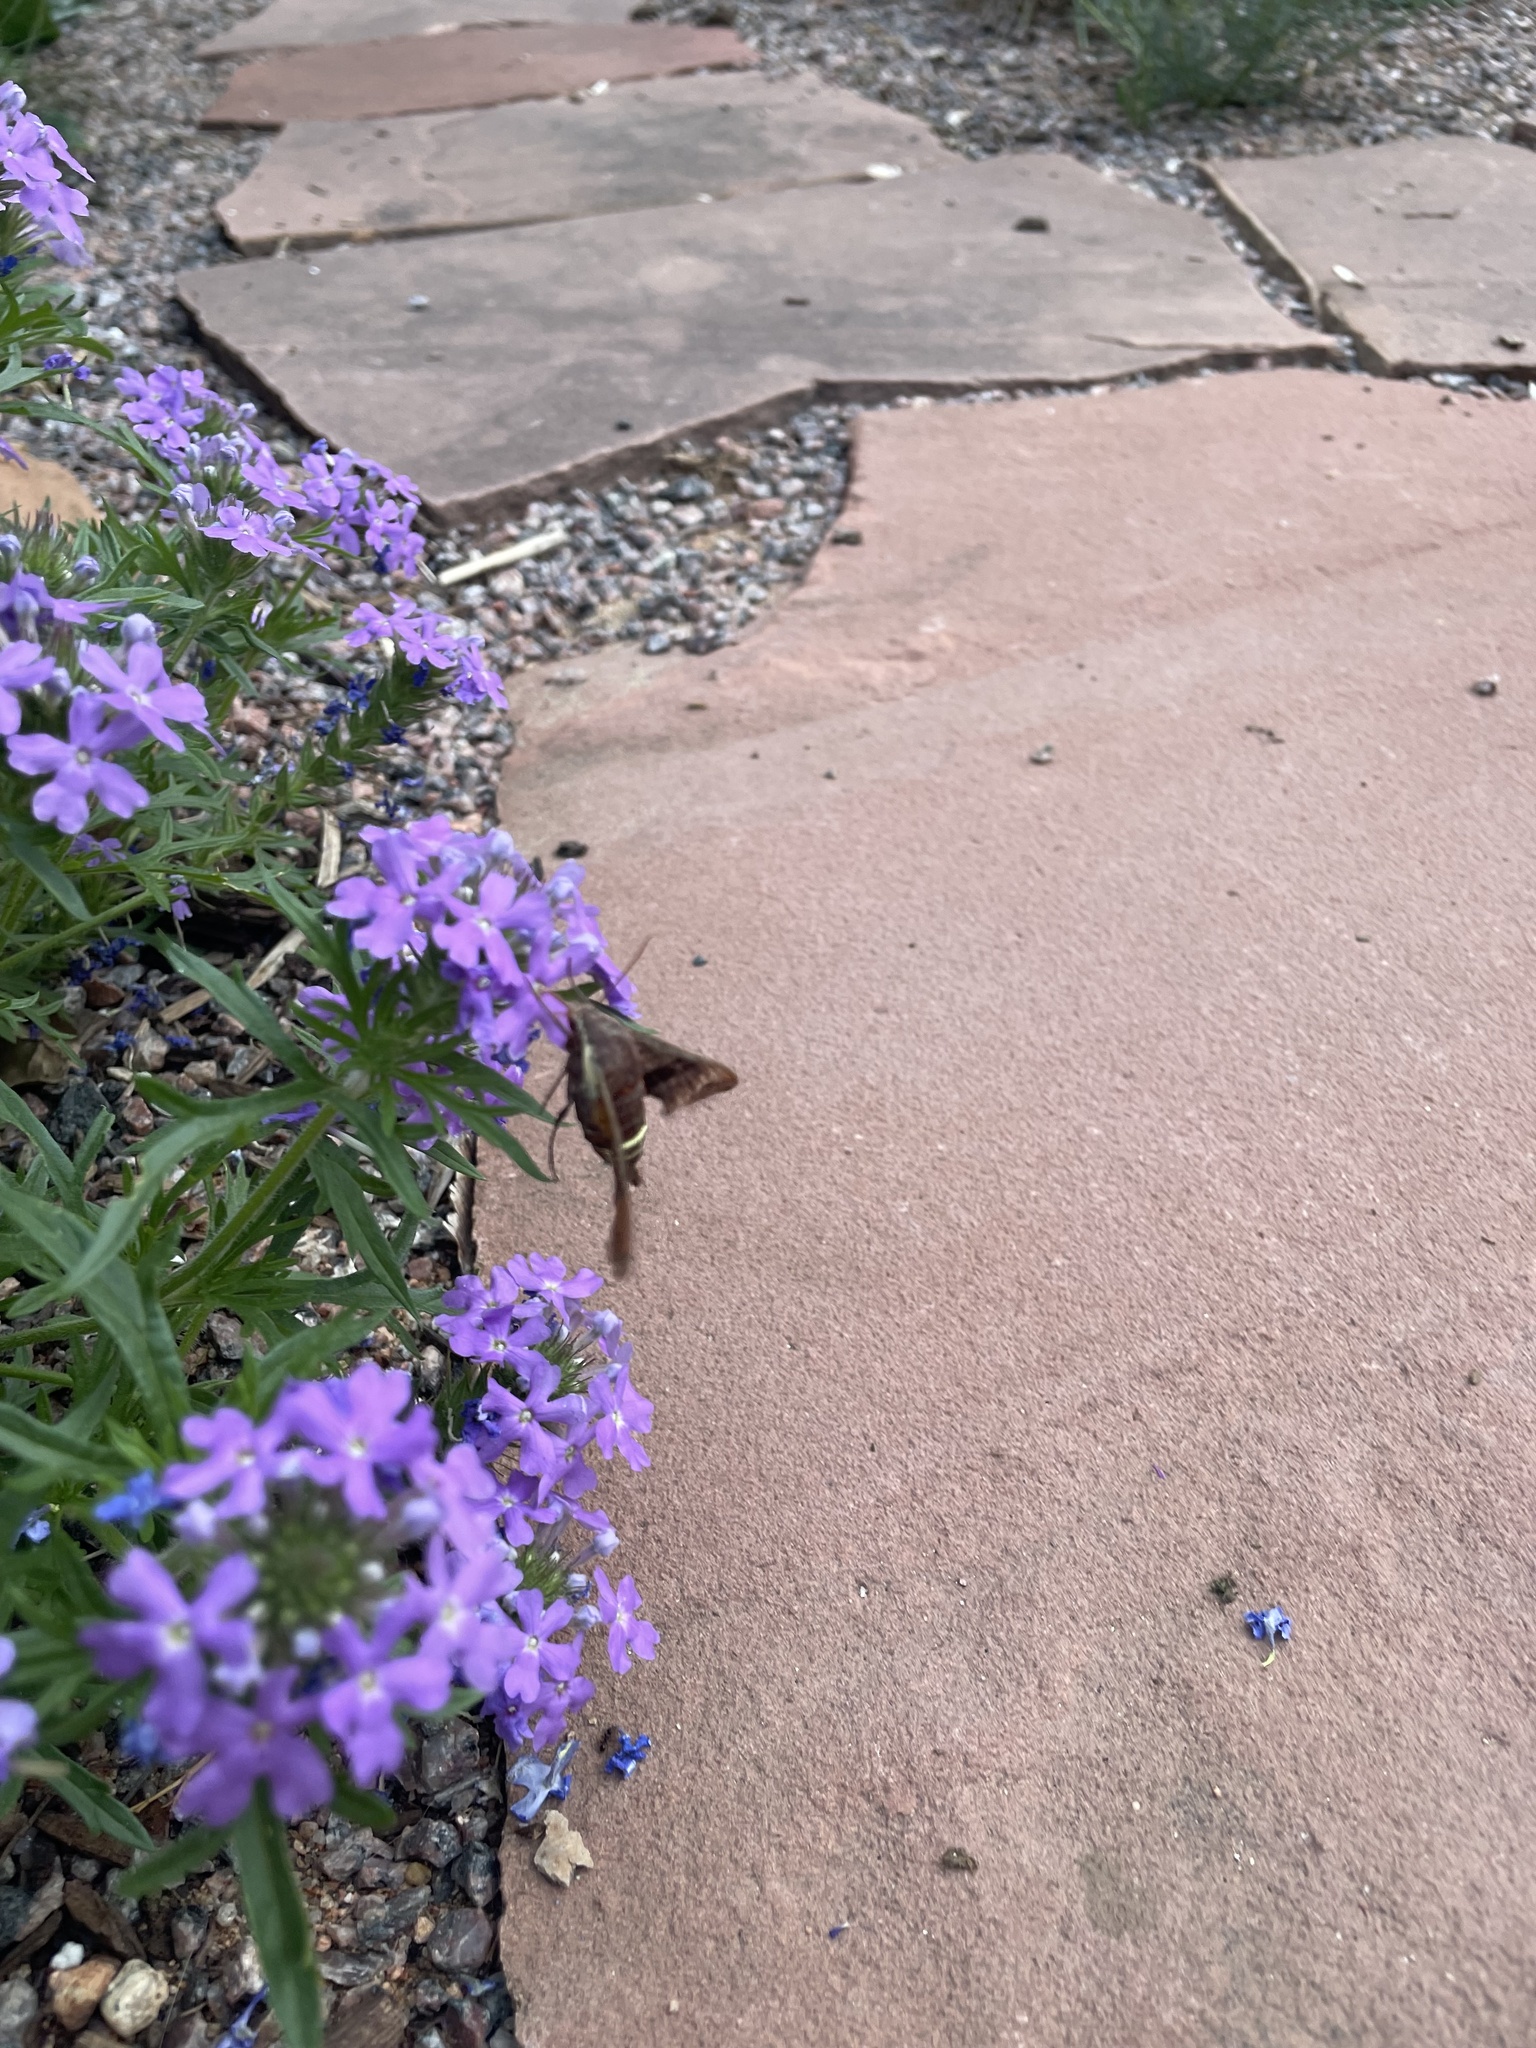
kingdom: Animalia
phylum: Arthropoda
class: Insecta
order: Lepidoptera
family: Sphingidae
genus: Amphion
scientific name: Amphion floridensis
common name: Nessus sphinx
